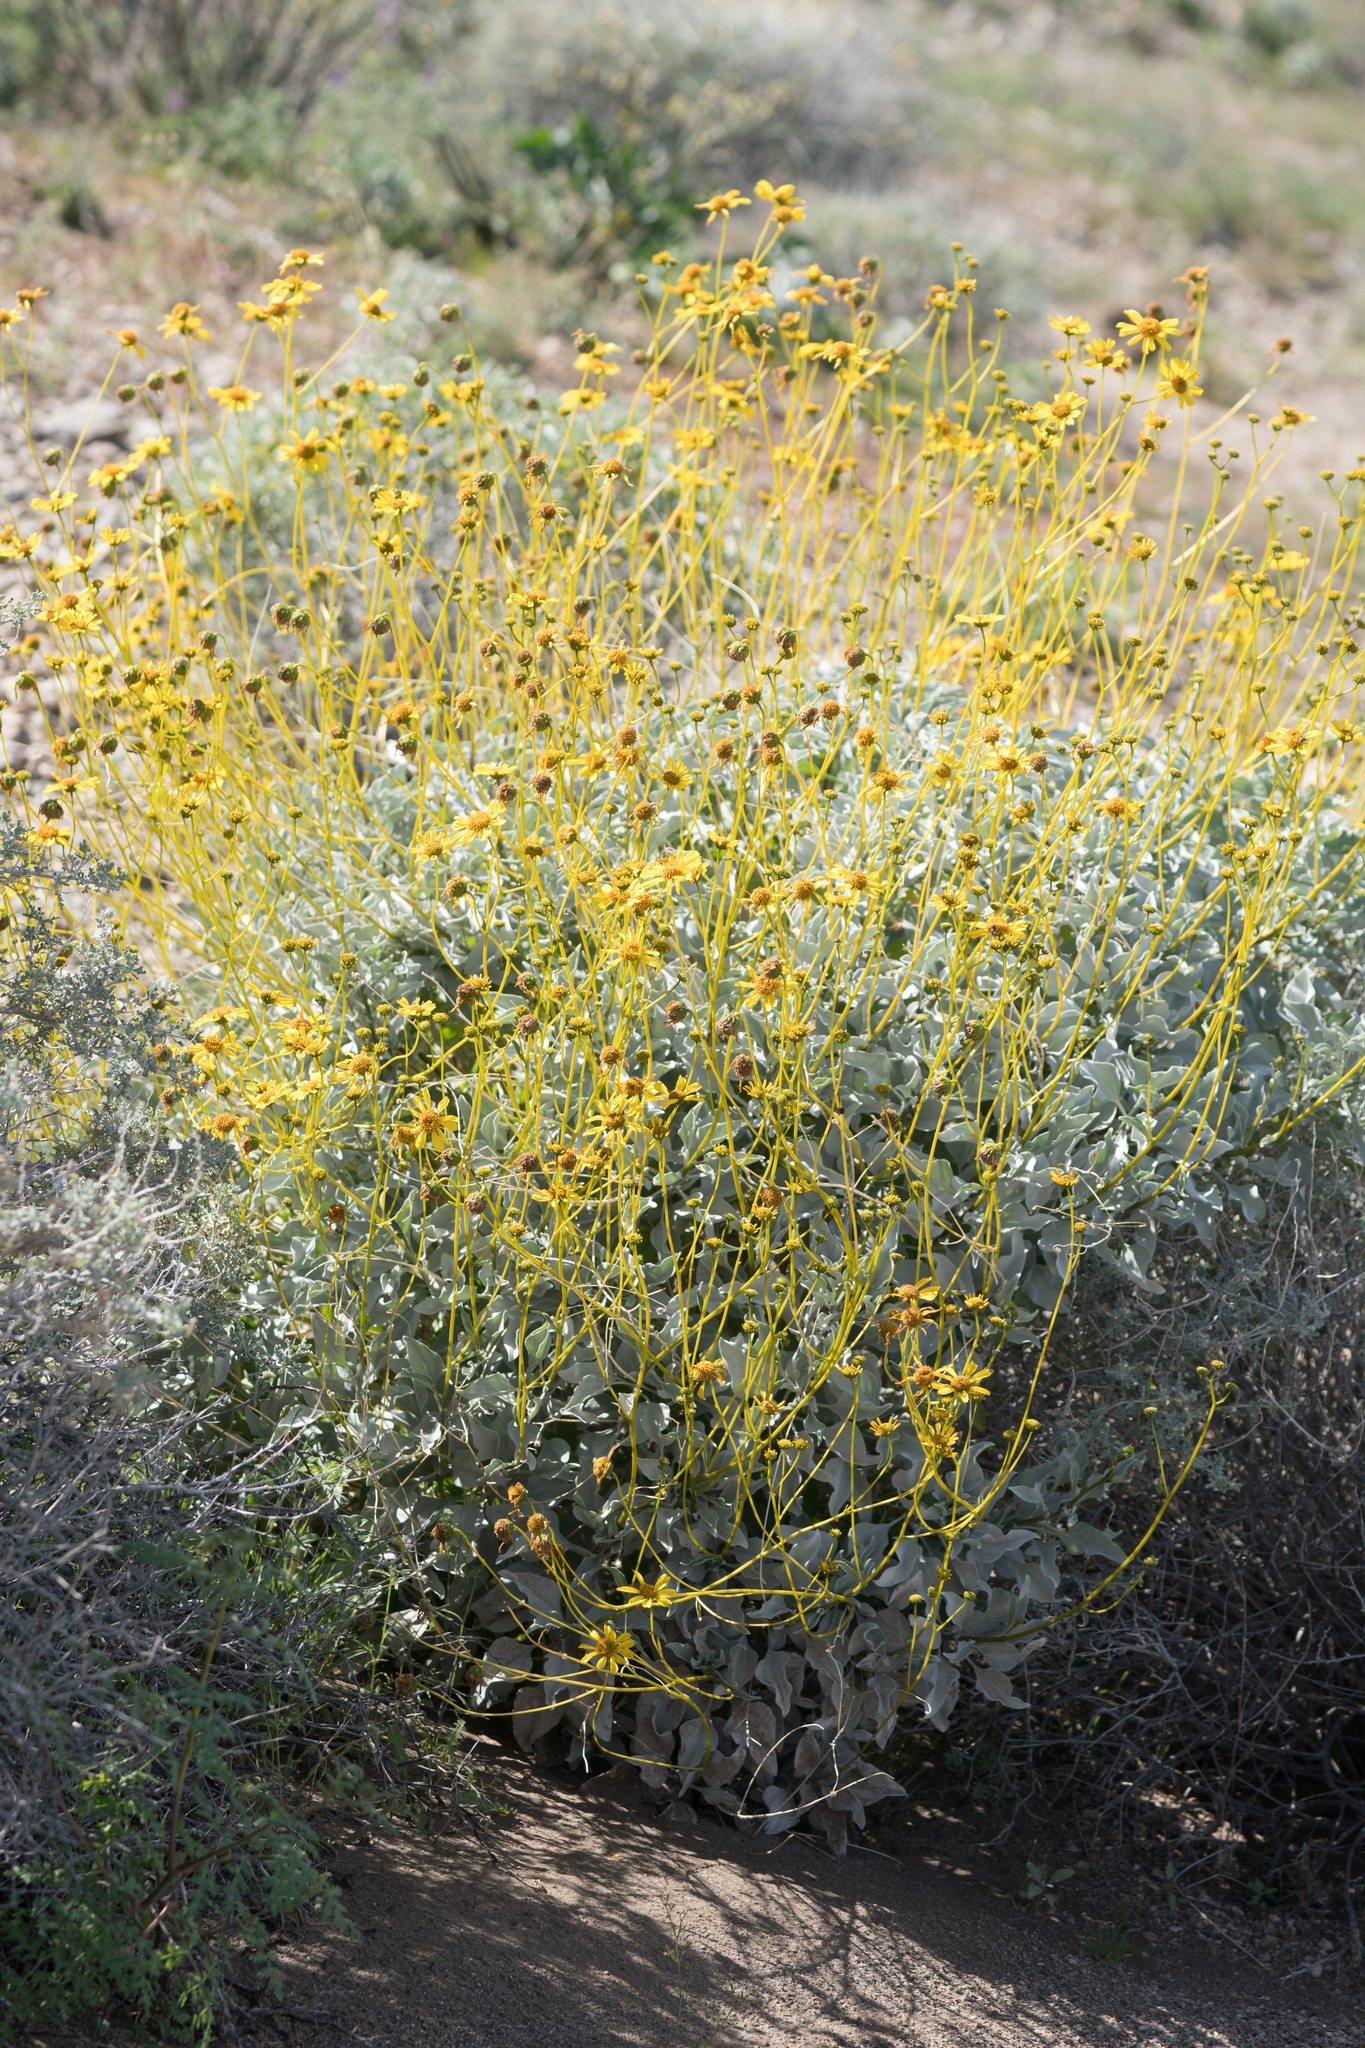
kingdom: Plantae
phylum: Tracheophyta
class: Magnoliopsida
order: Asterales
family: Asteraceae
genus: Encelia
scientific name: Encelia farinosa
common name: Brittlebush
